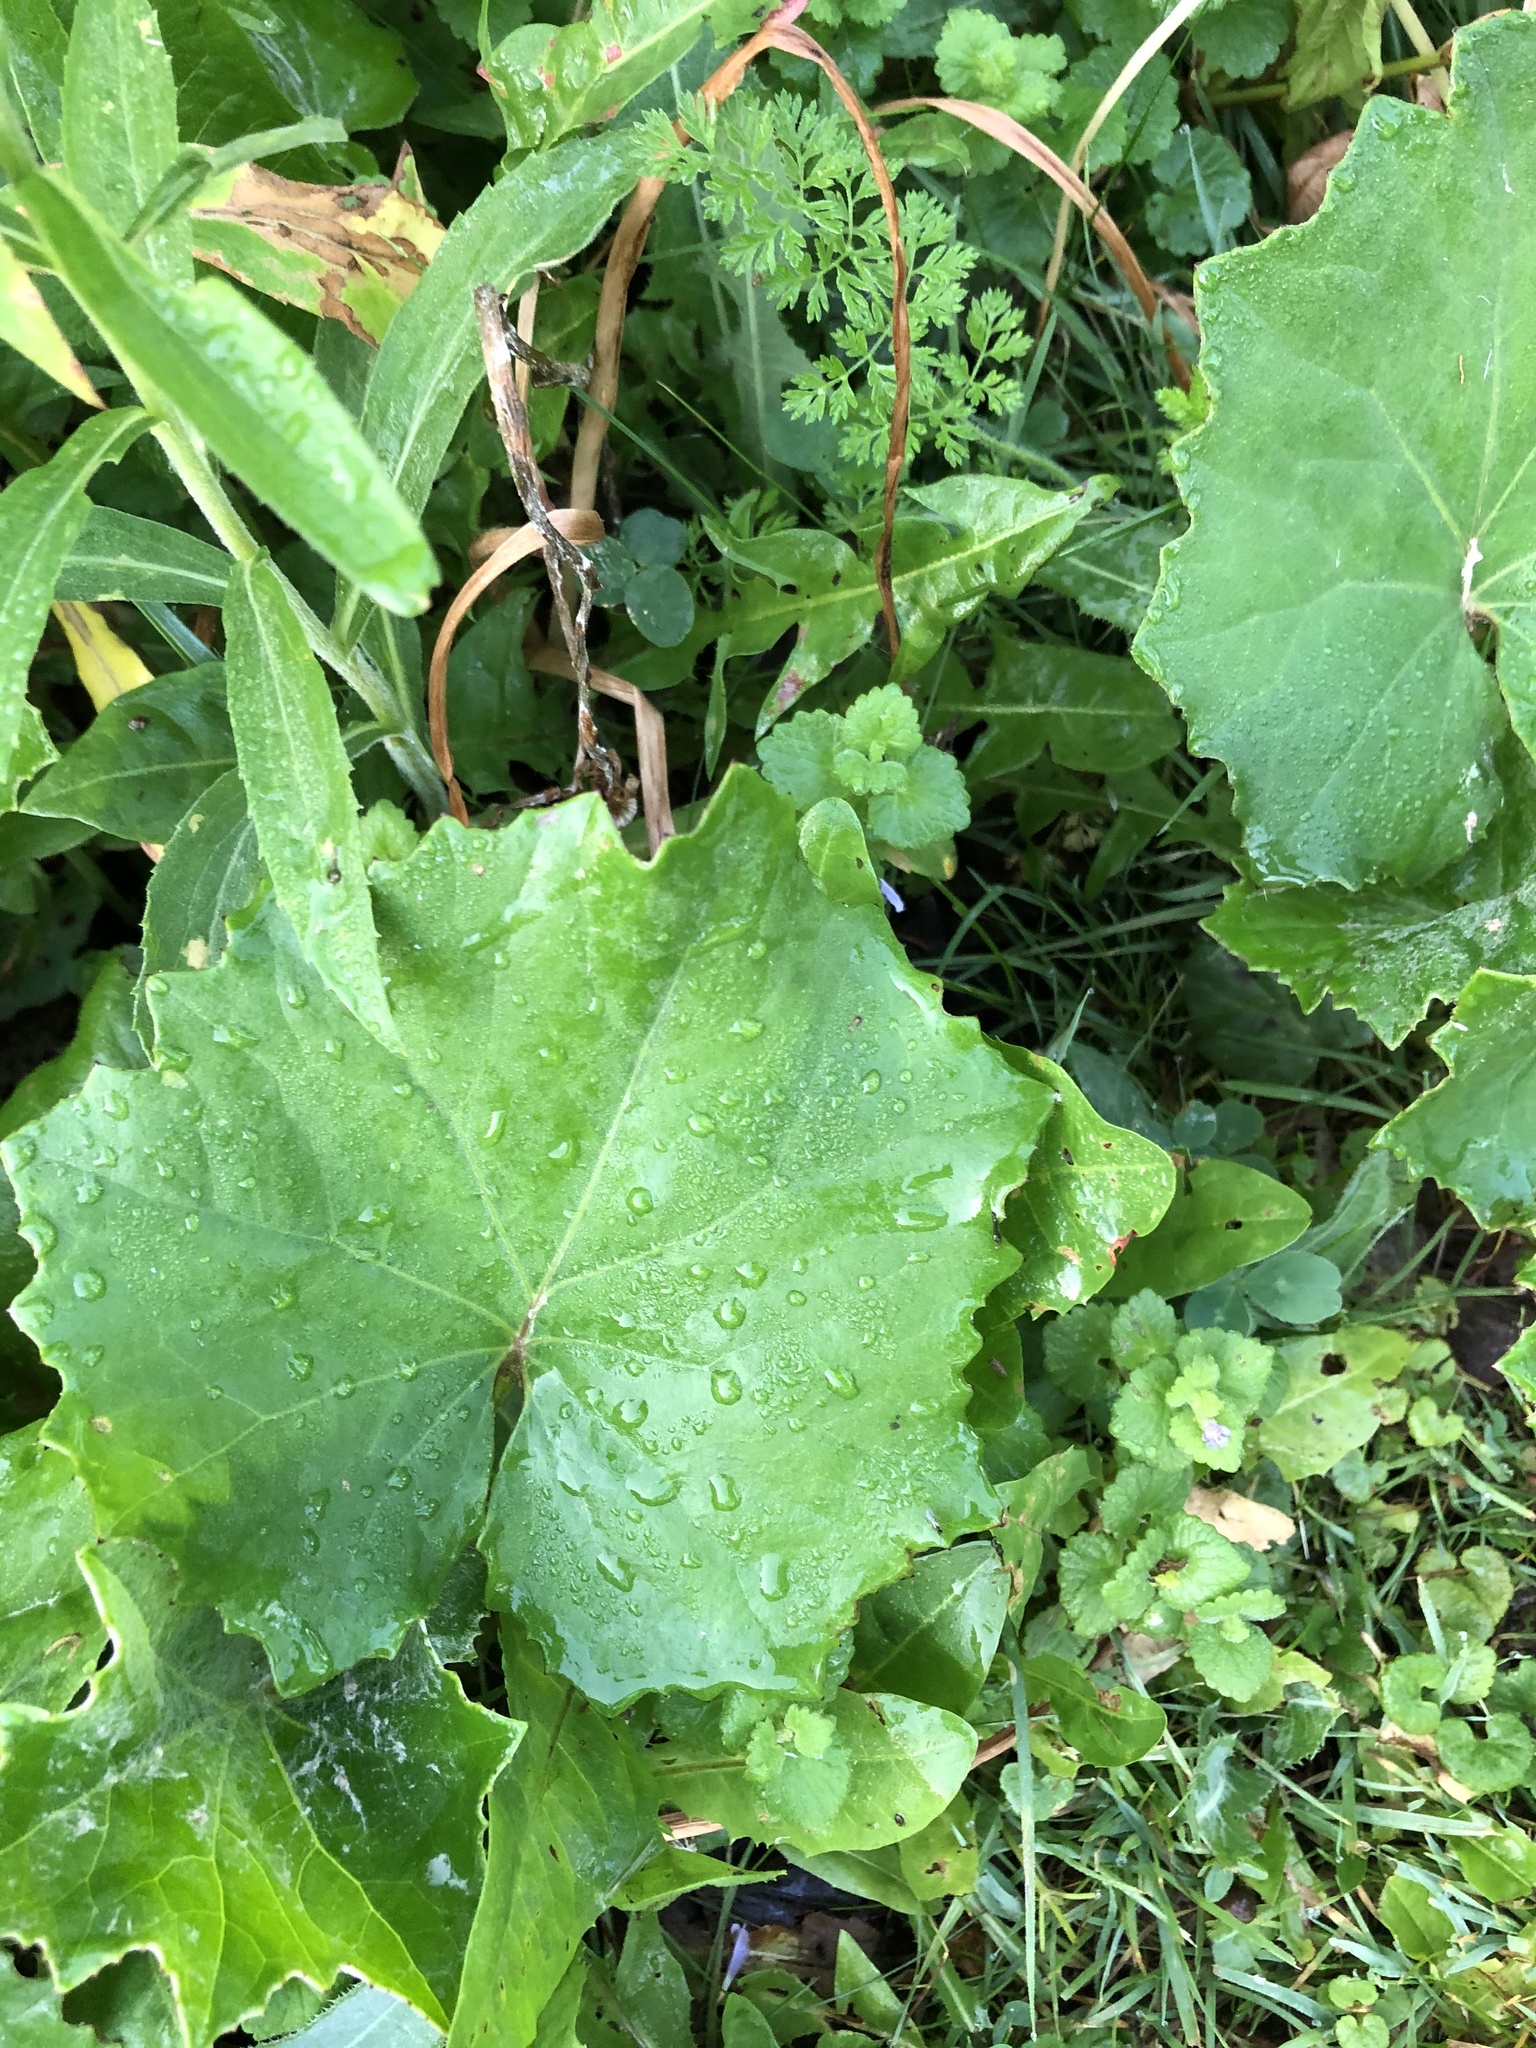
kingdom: Plantae
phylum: Tracheophyta
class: Magnoliopsida
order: Asterales
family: Asteraceae
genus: Tussilago
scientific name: Tussilago farfara
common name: Coltsfoot
